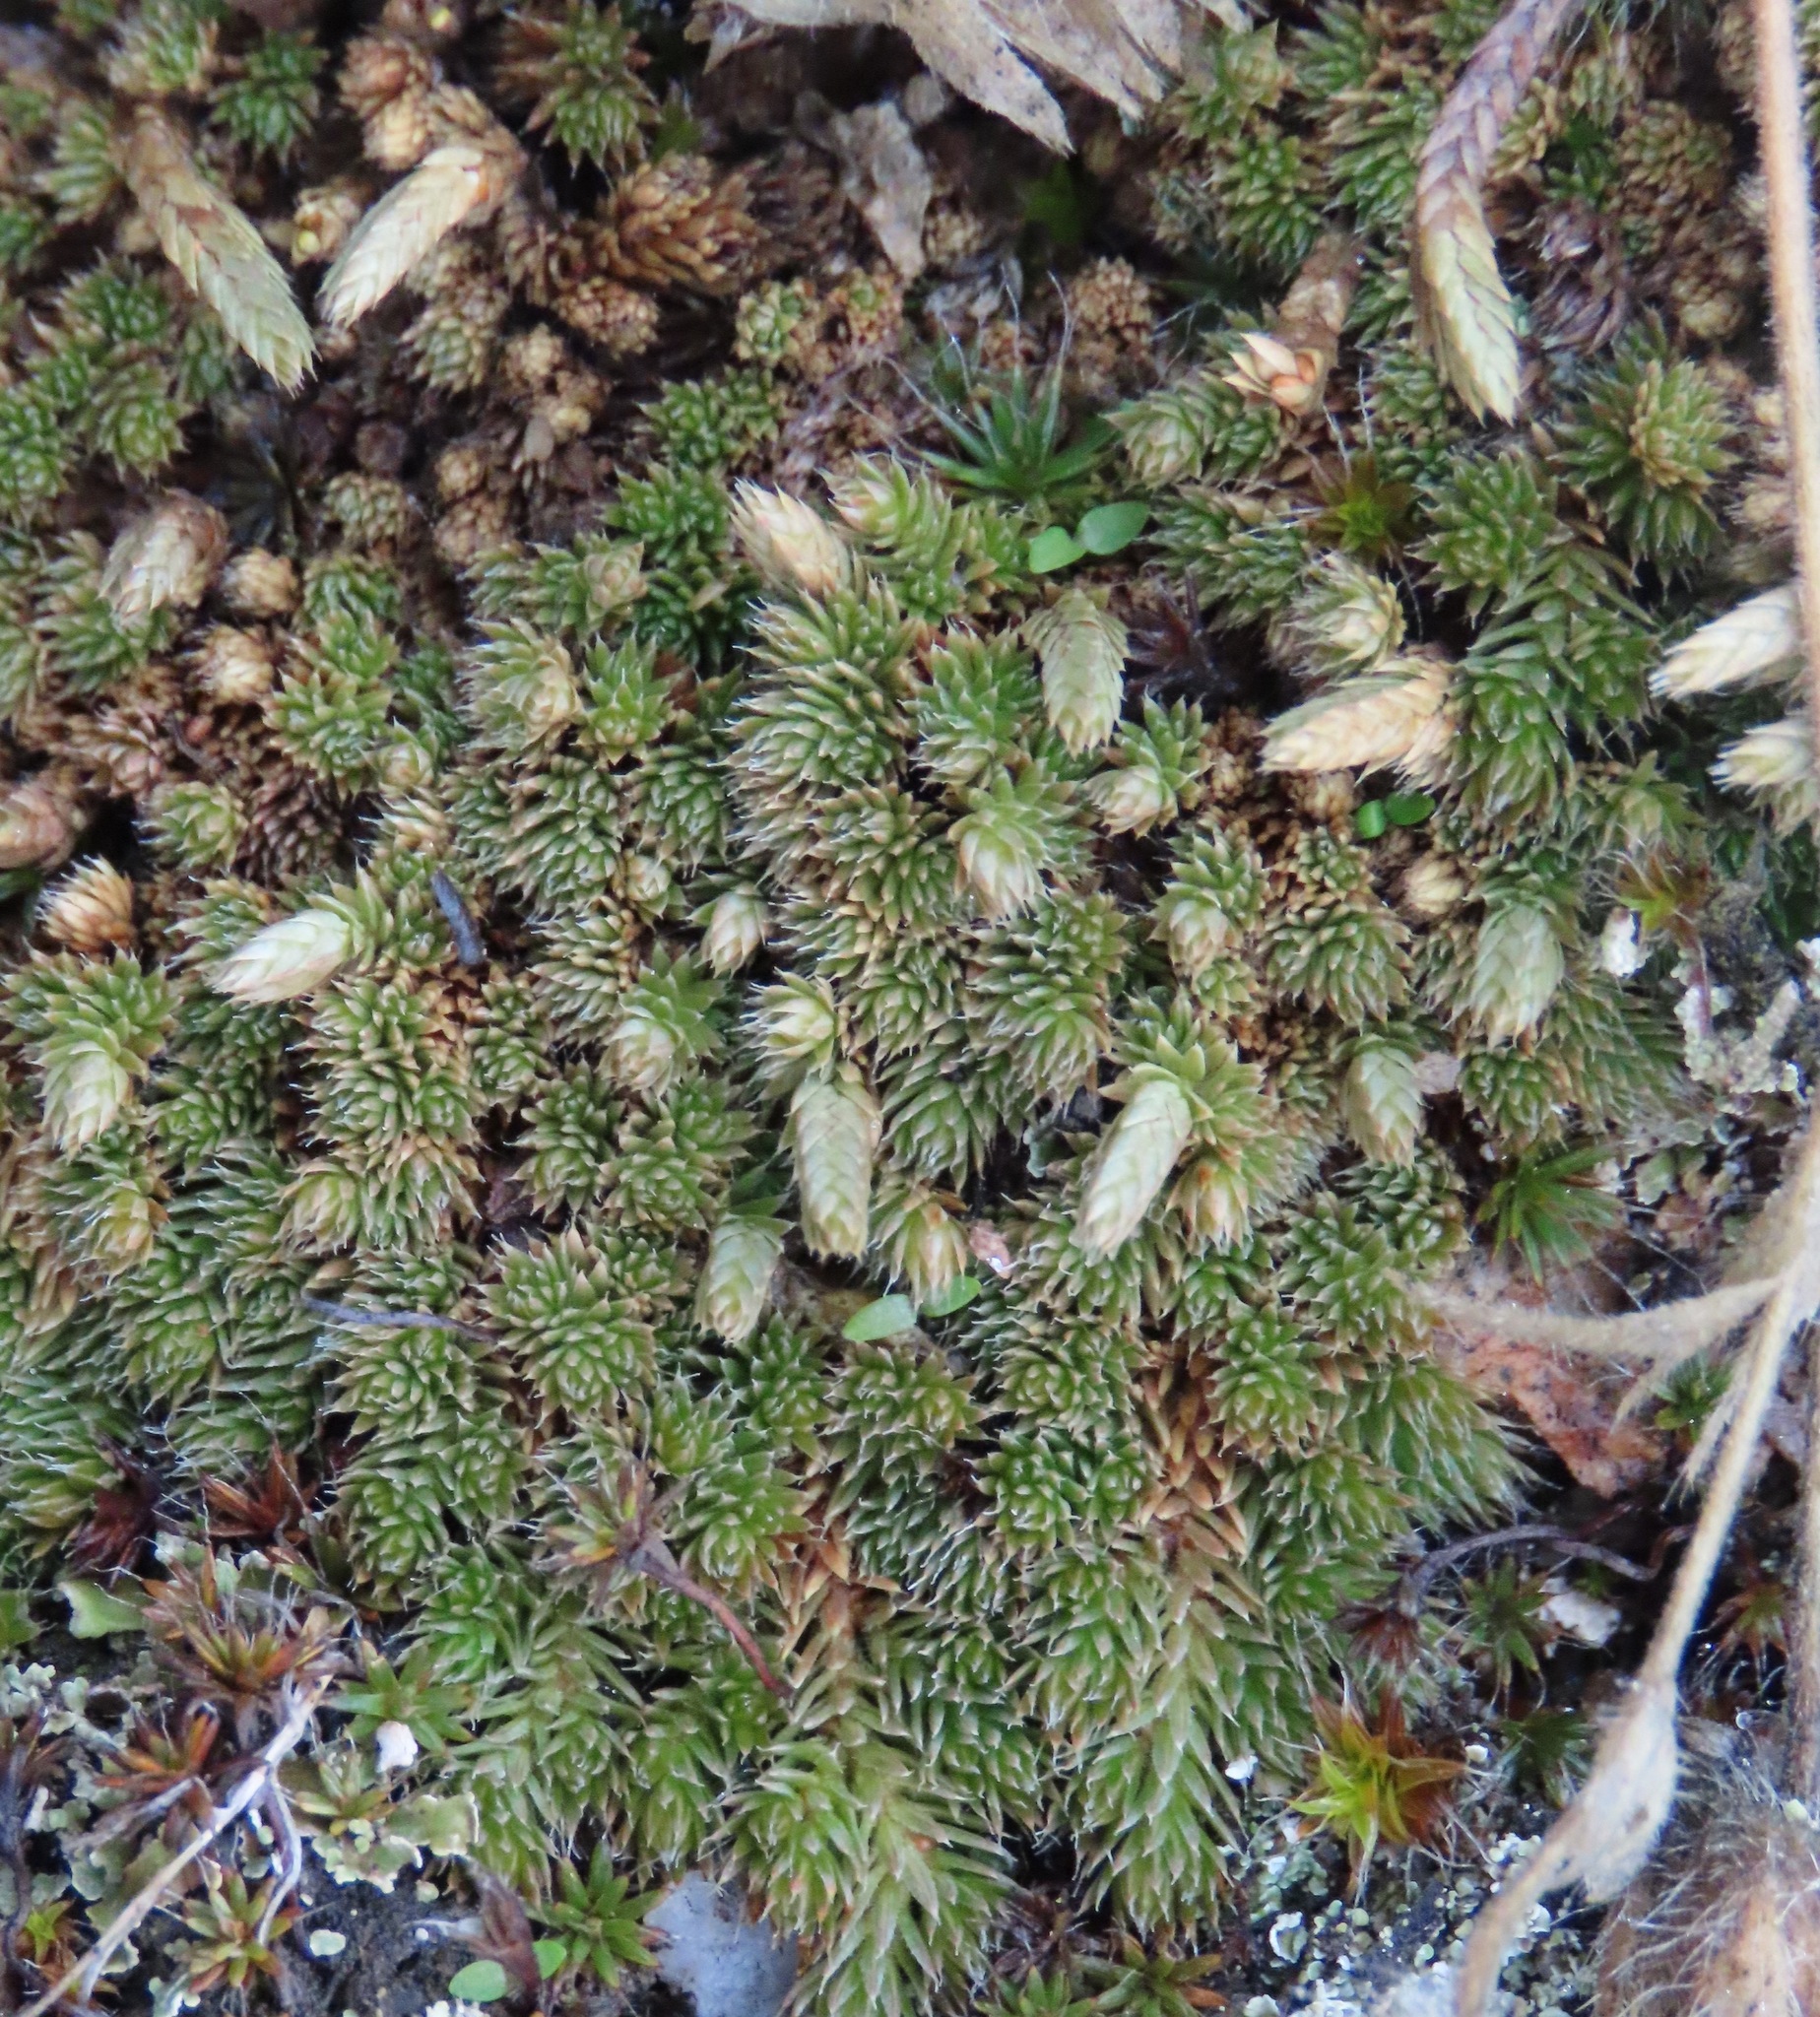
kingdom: Plantae
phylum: Tracheophyta
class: Lycopodiopsida
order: Selaginellales
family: Selaginellaceae
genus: Selaginella
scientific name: Selaginella densa
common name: Mountain spike-moss
